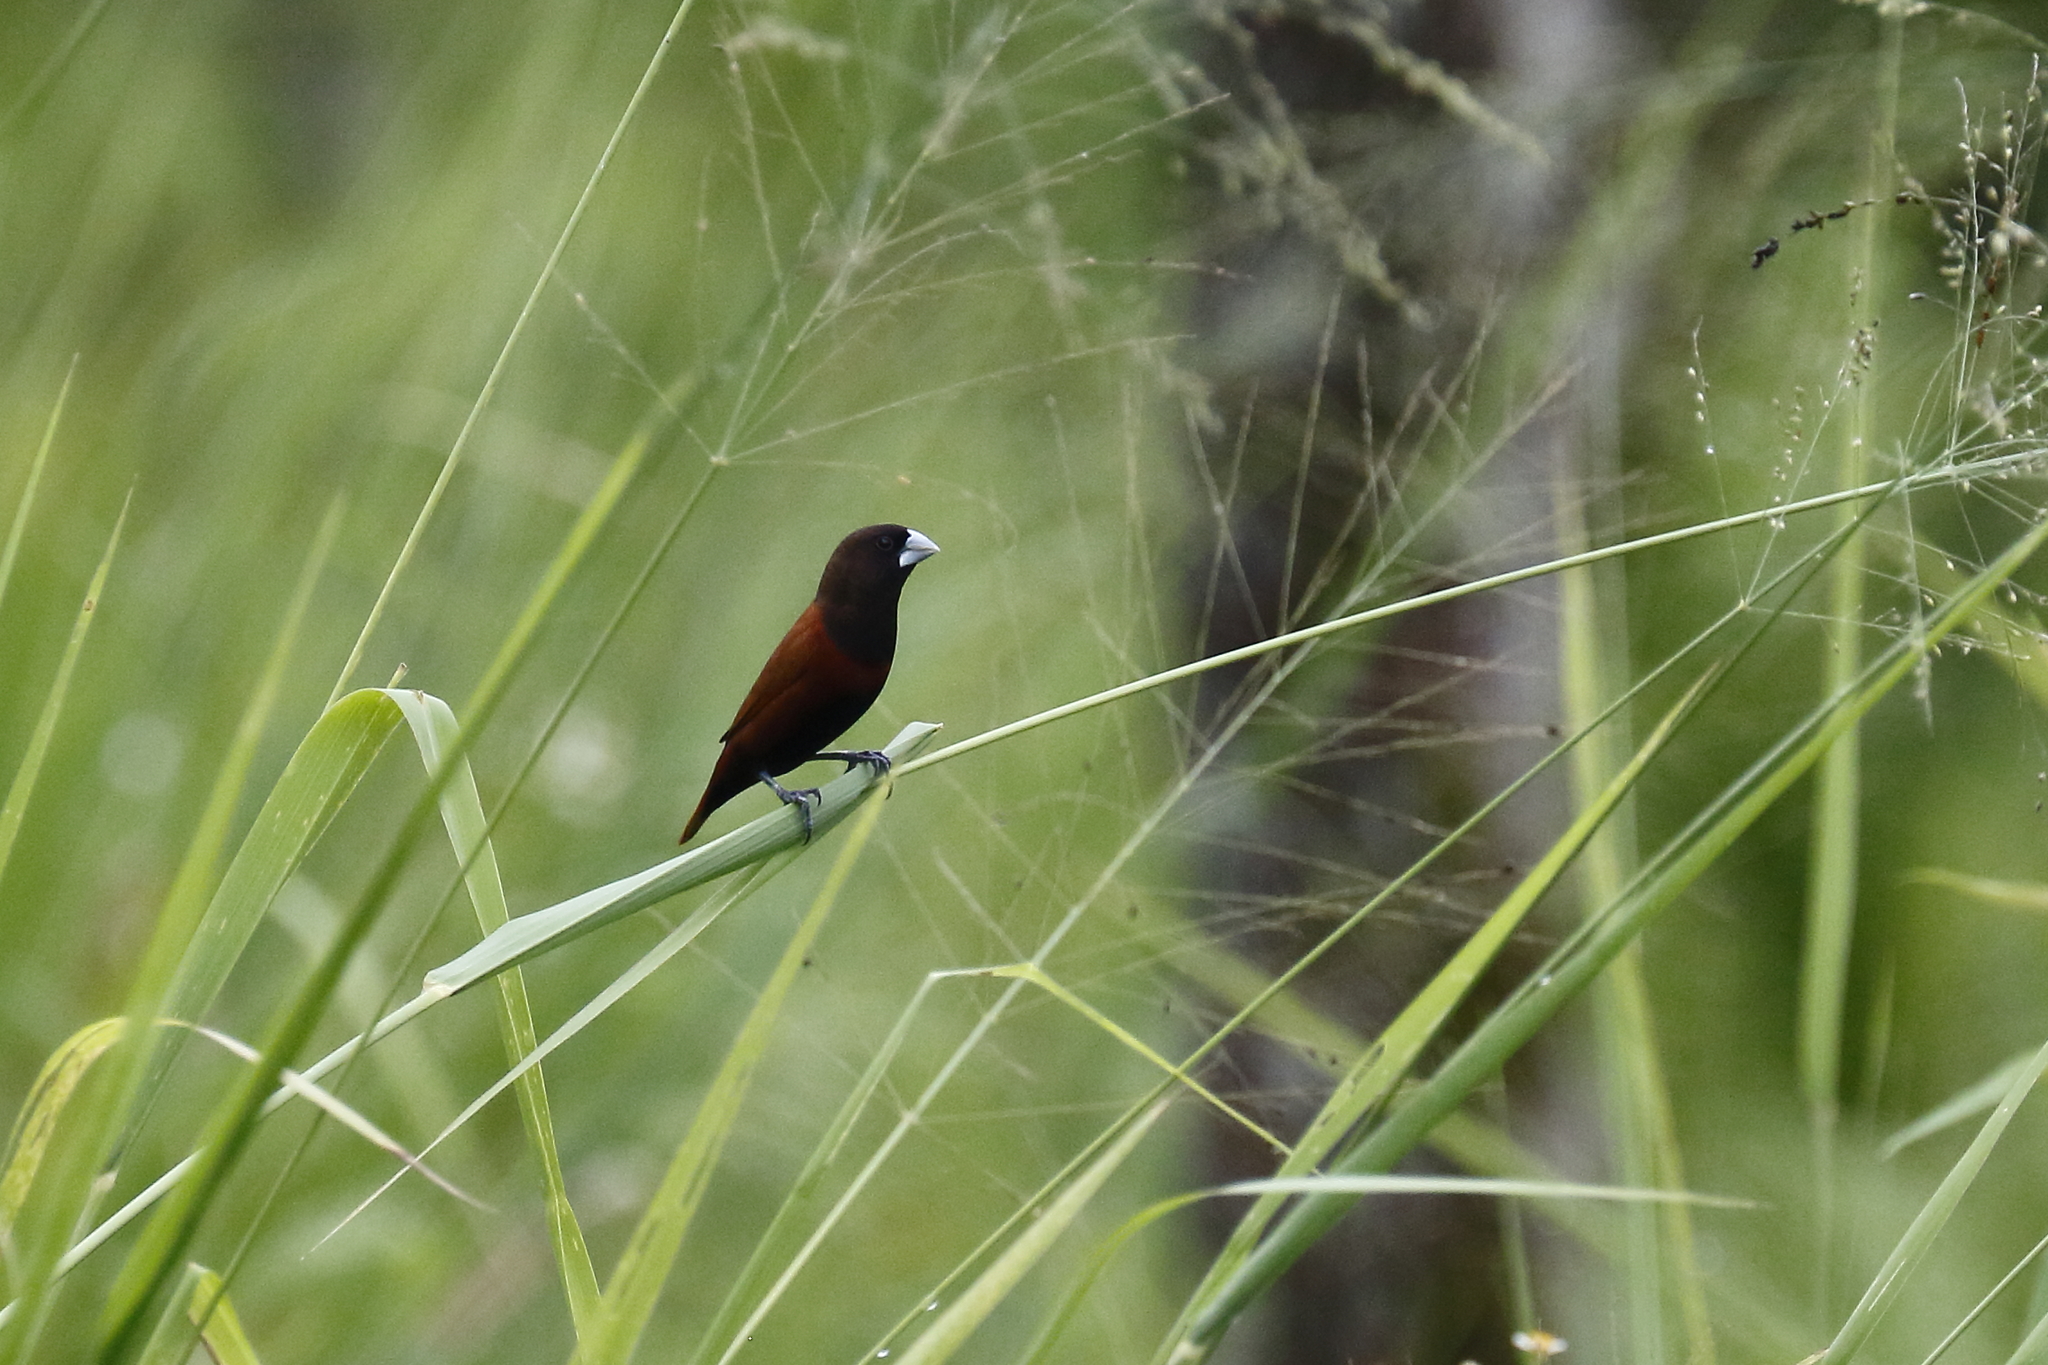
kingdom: Animalia
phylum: Chordata
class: Aves
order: Passeriformes
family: Estrildidae
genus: Lonchura
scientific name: Lonchura atricapilla
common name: Chestnut munia
